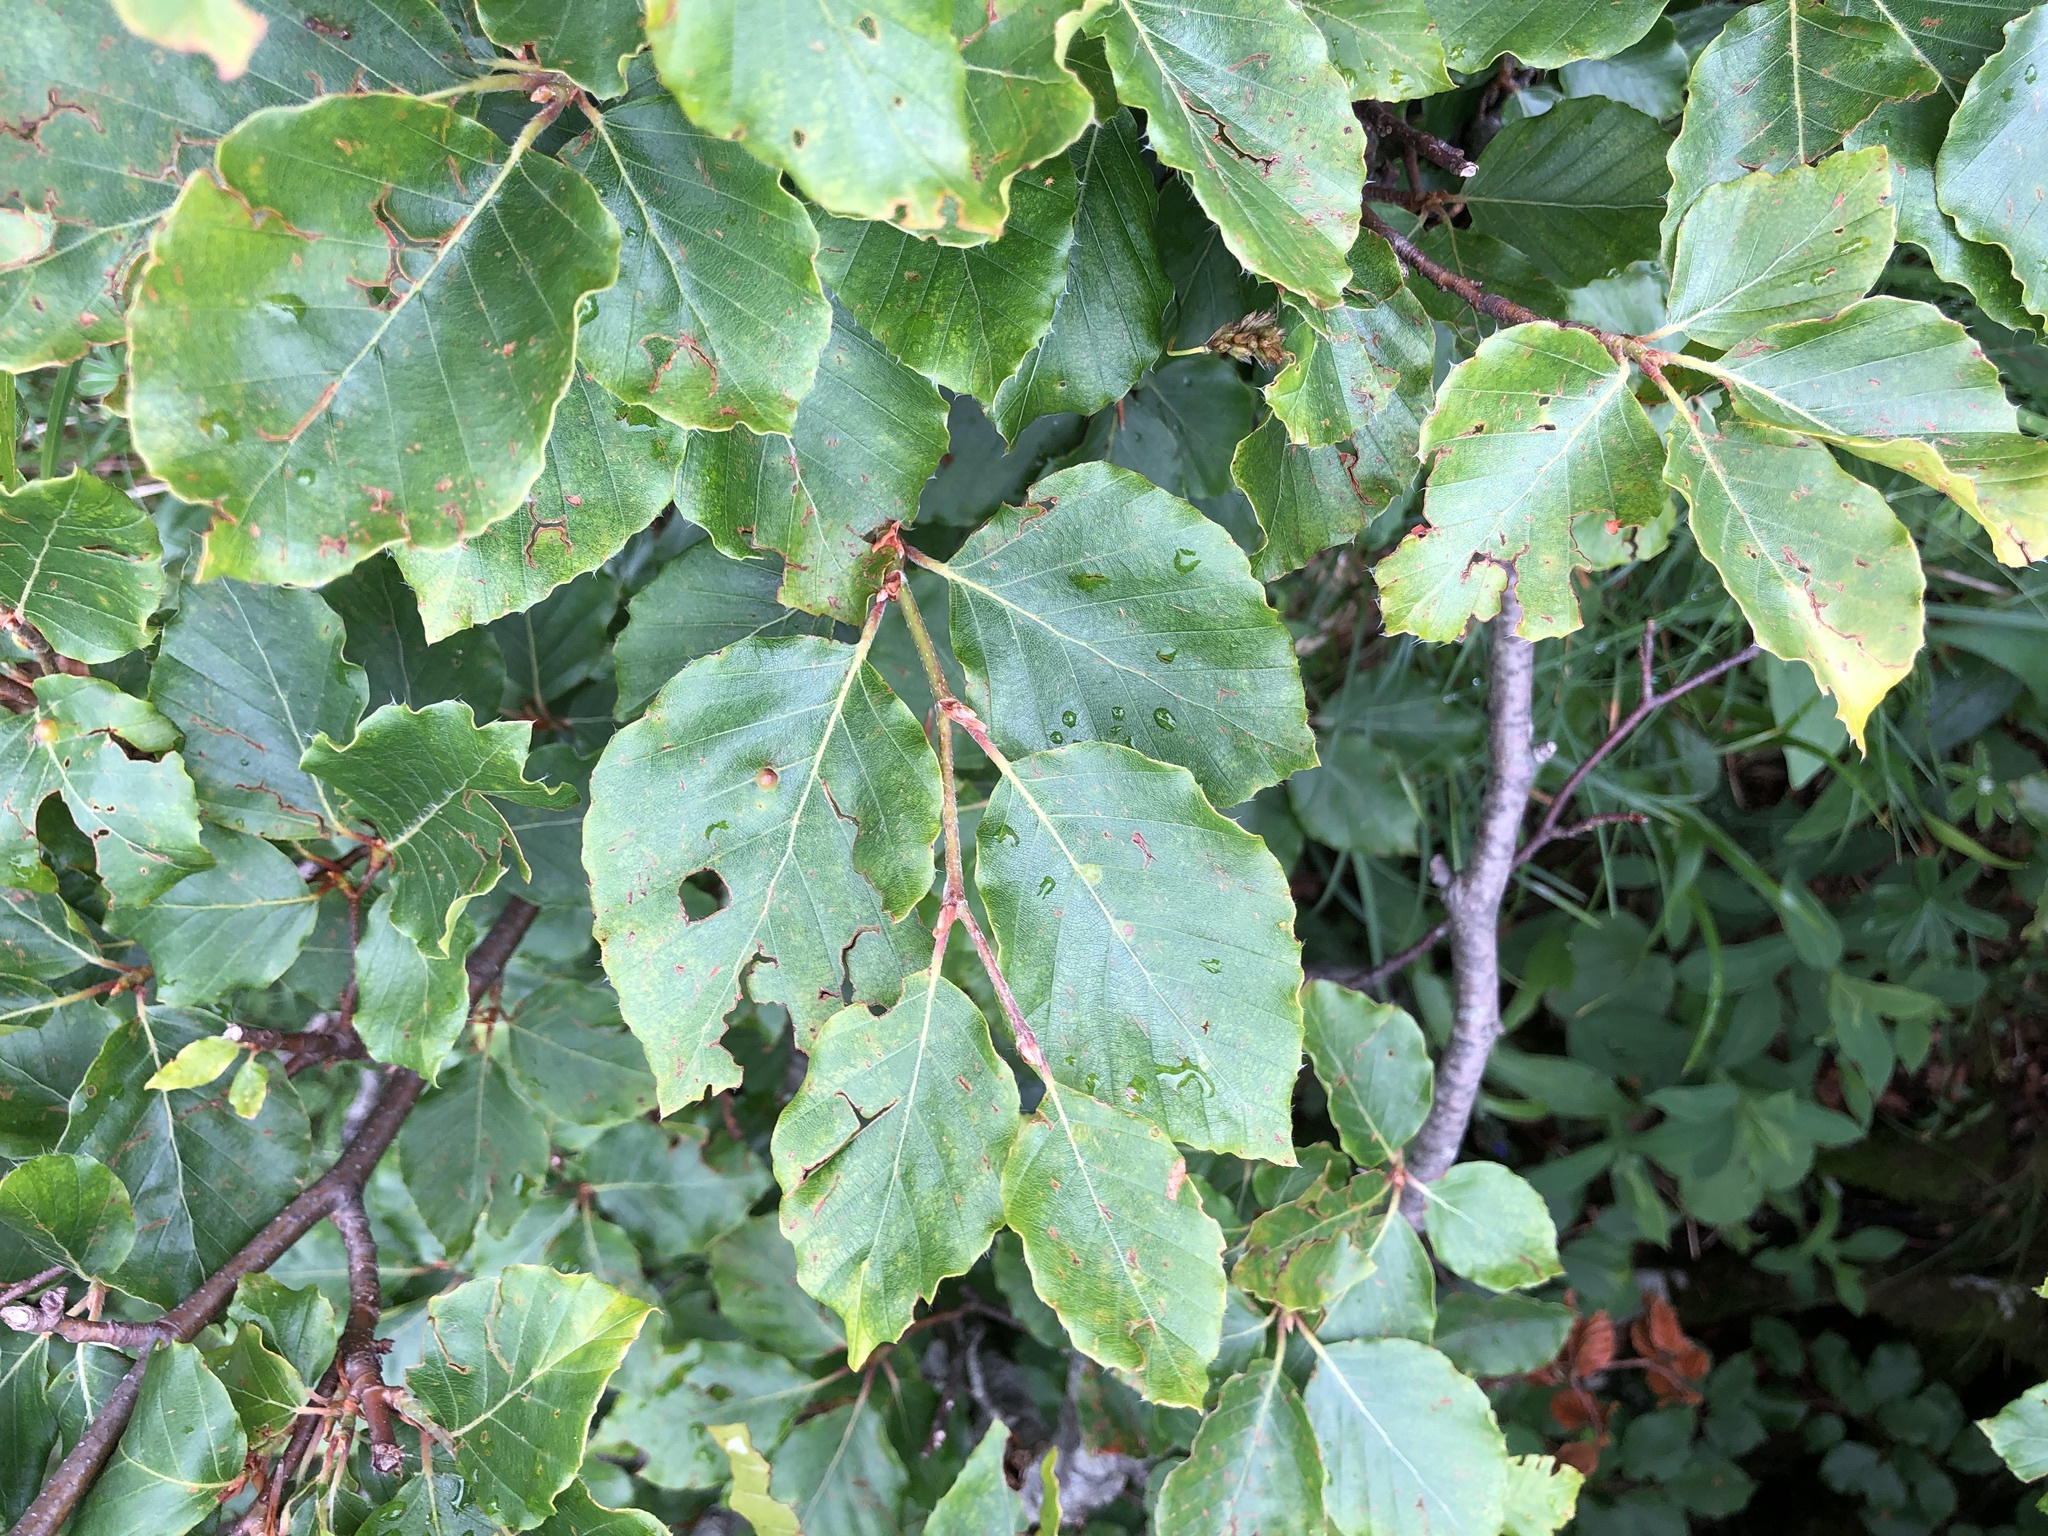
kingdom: Plantae
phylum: Tracheophyta
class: Magnoliopsida
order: Fagales
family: Fagaceae
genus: Fagus
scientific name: Fagus sylvatica
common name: Beech
